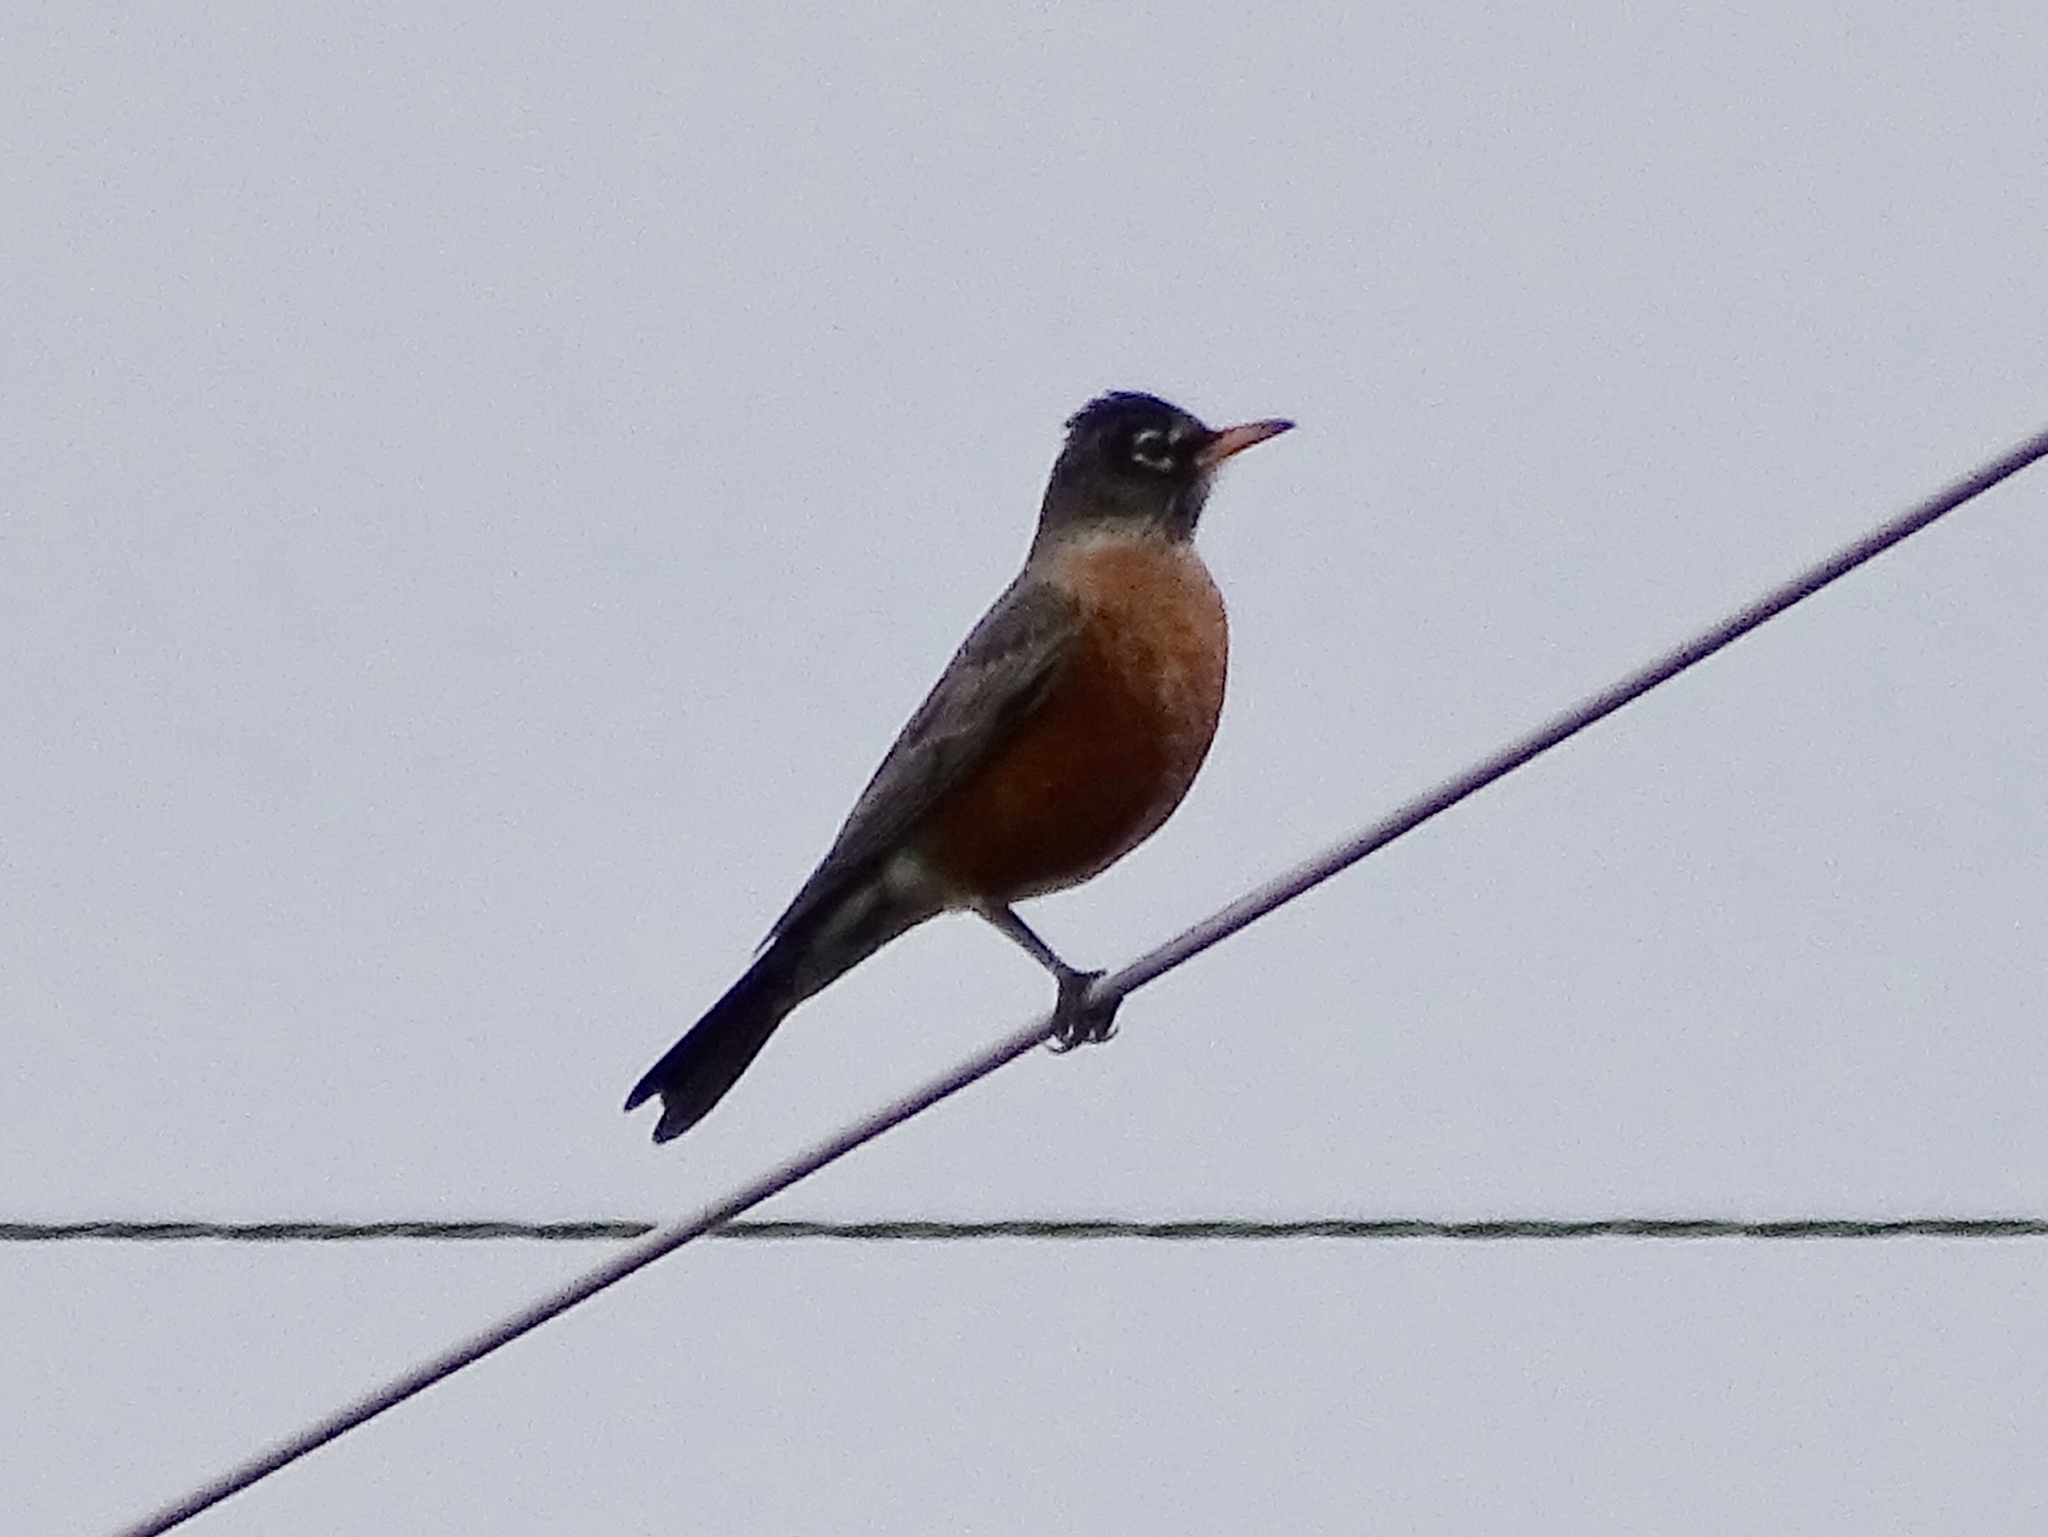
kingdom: Animalia
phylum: Chordata
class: Aves
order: Passeriformes
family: Turdidae
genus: Turdus
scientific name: Turdus migratorius
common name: American robin
